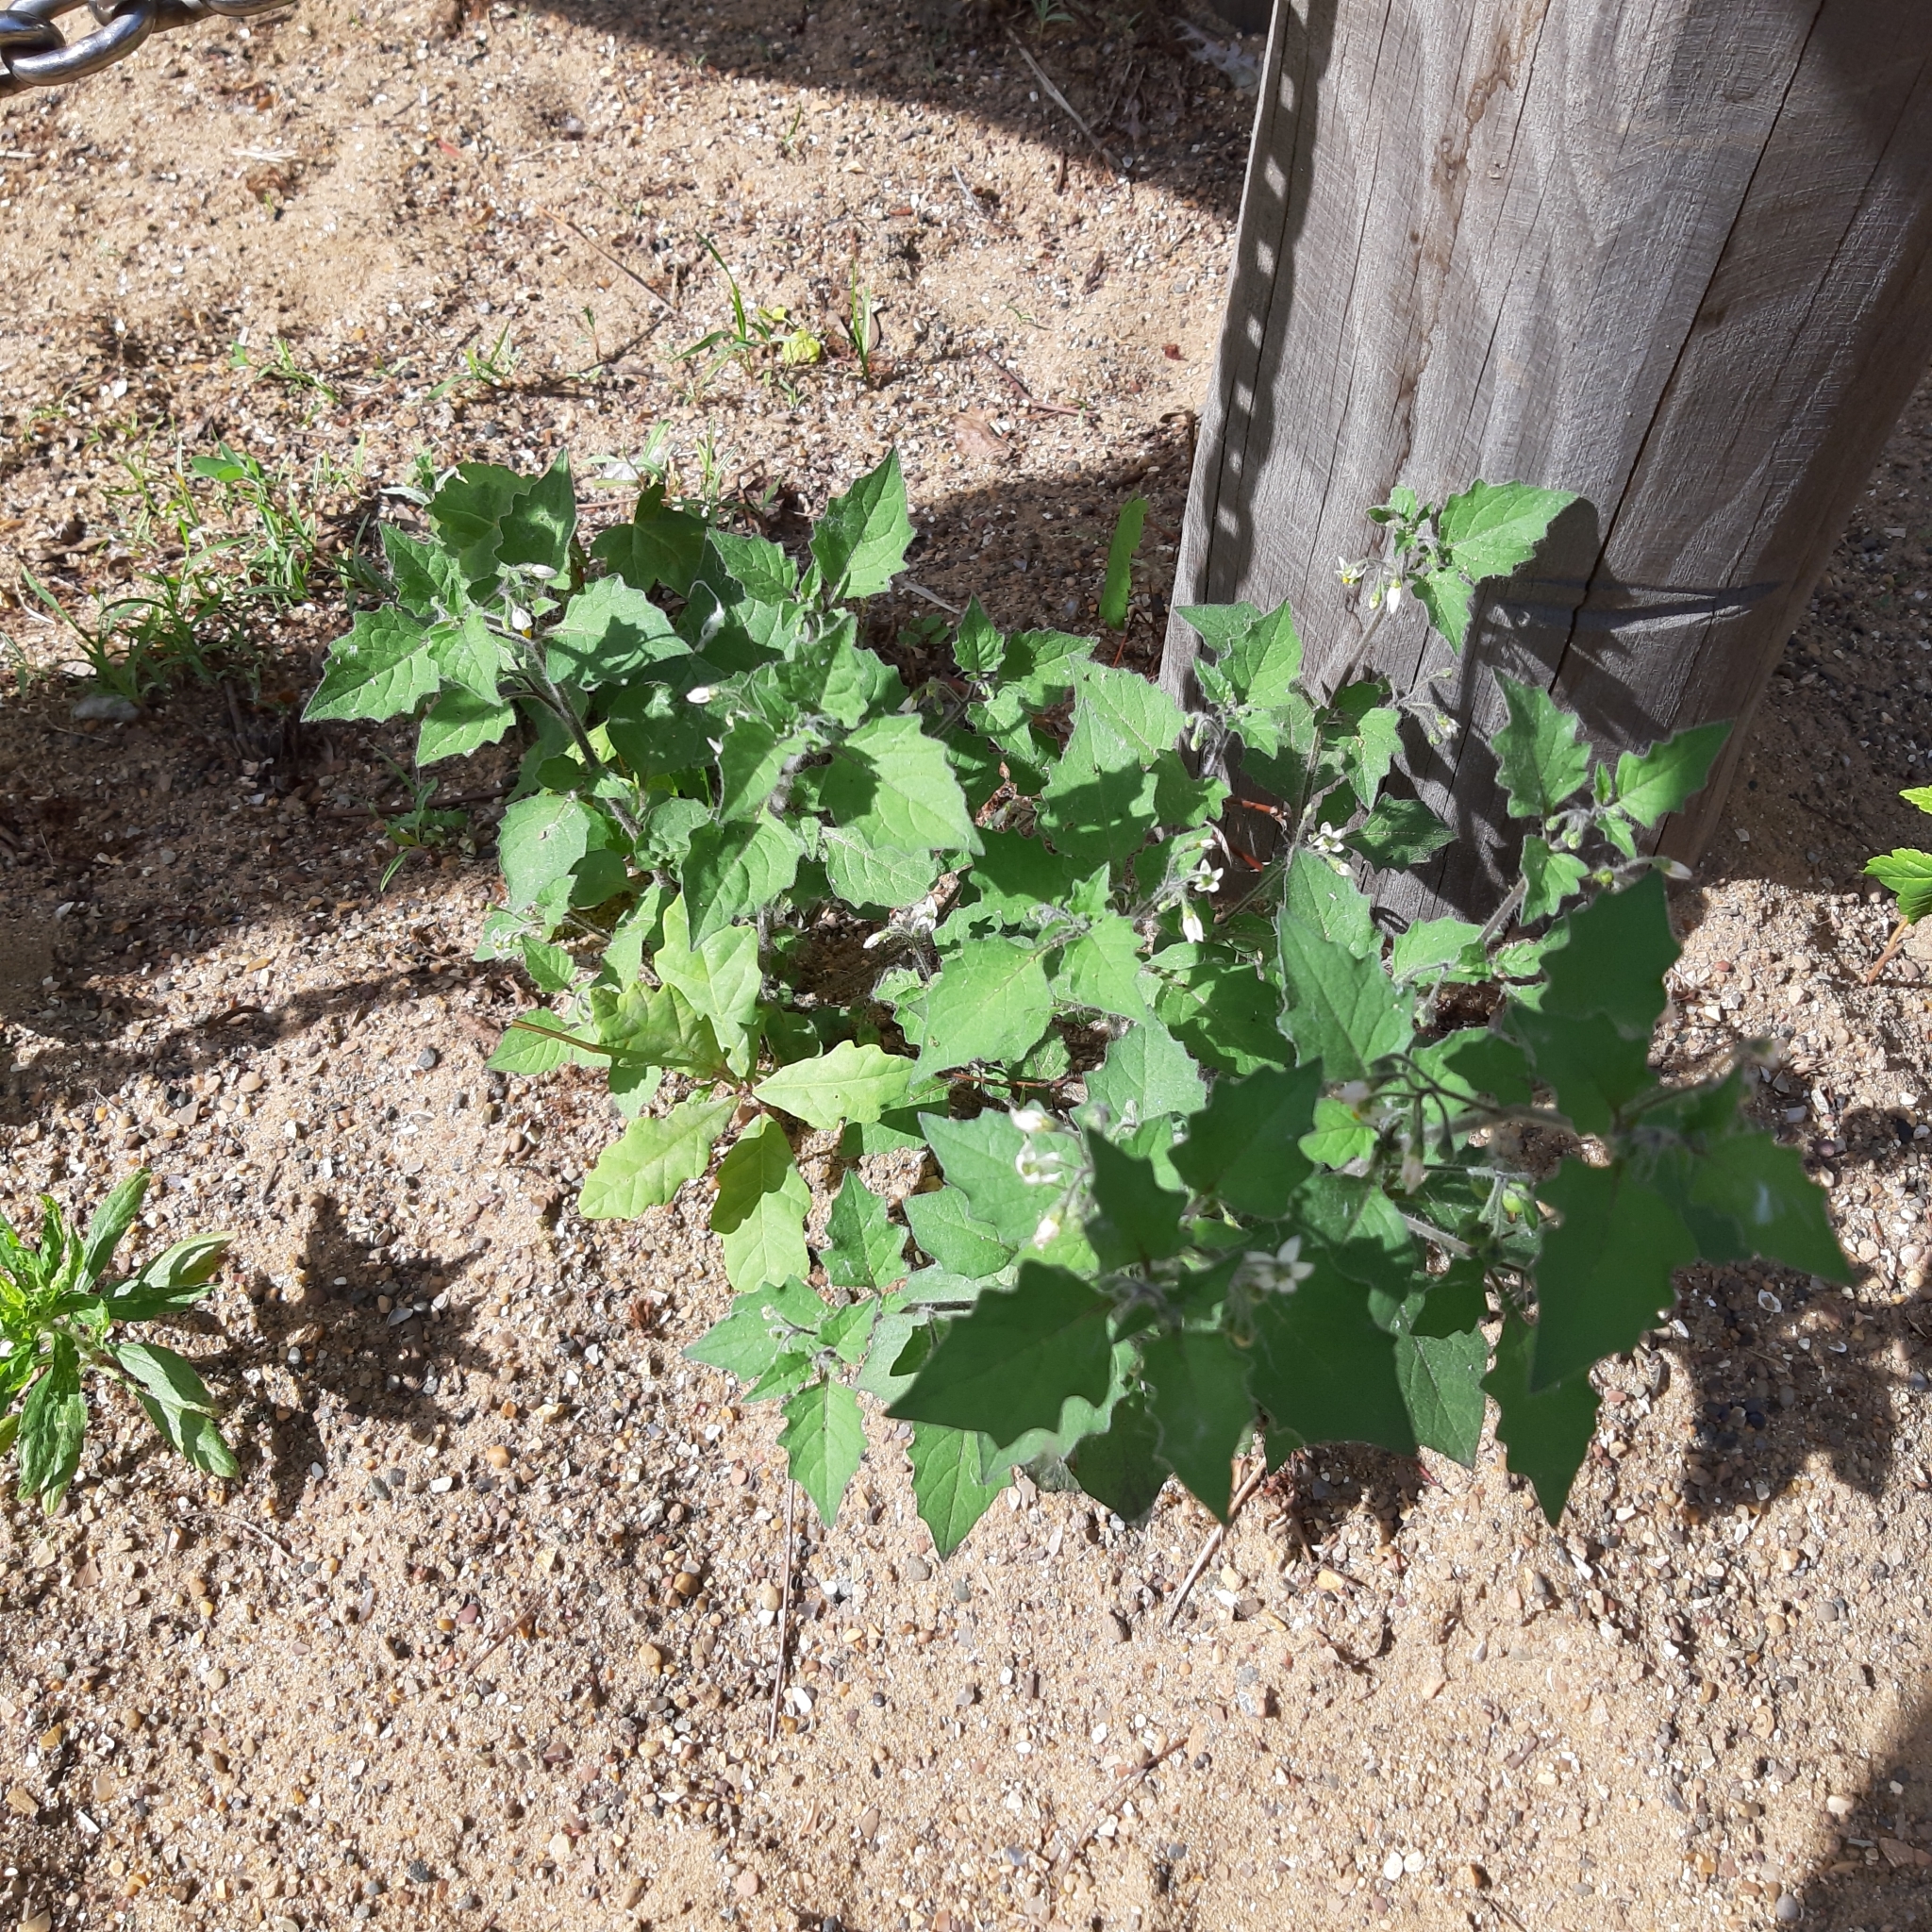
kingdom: Plantae
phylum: Tracheophyta
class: Magnoliopsida
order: Caryophyllales
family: Amaranthaceae
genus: Chenopodium
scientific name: Chenopodium album
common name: Fat-hen
